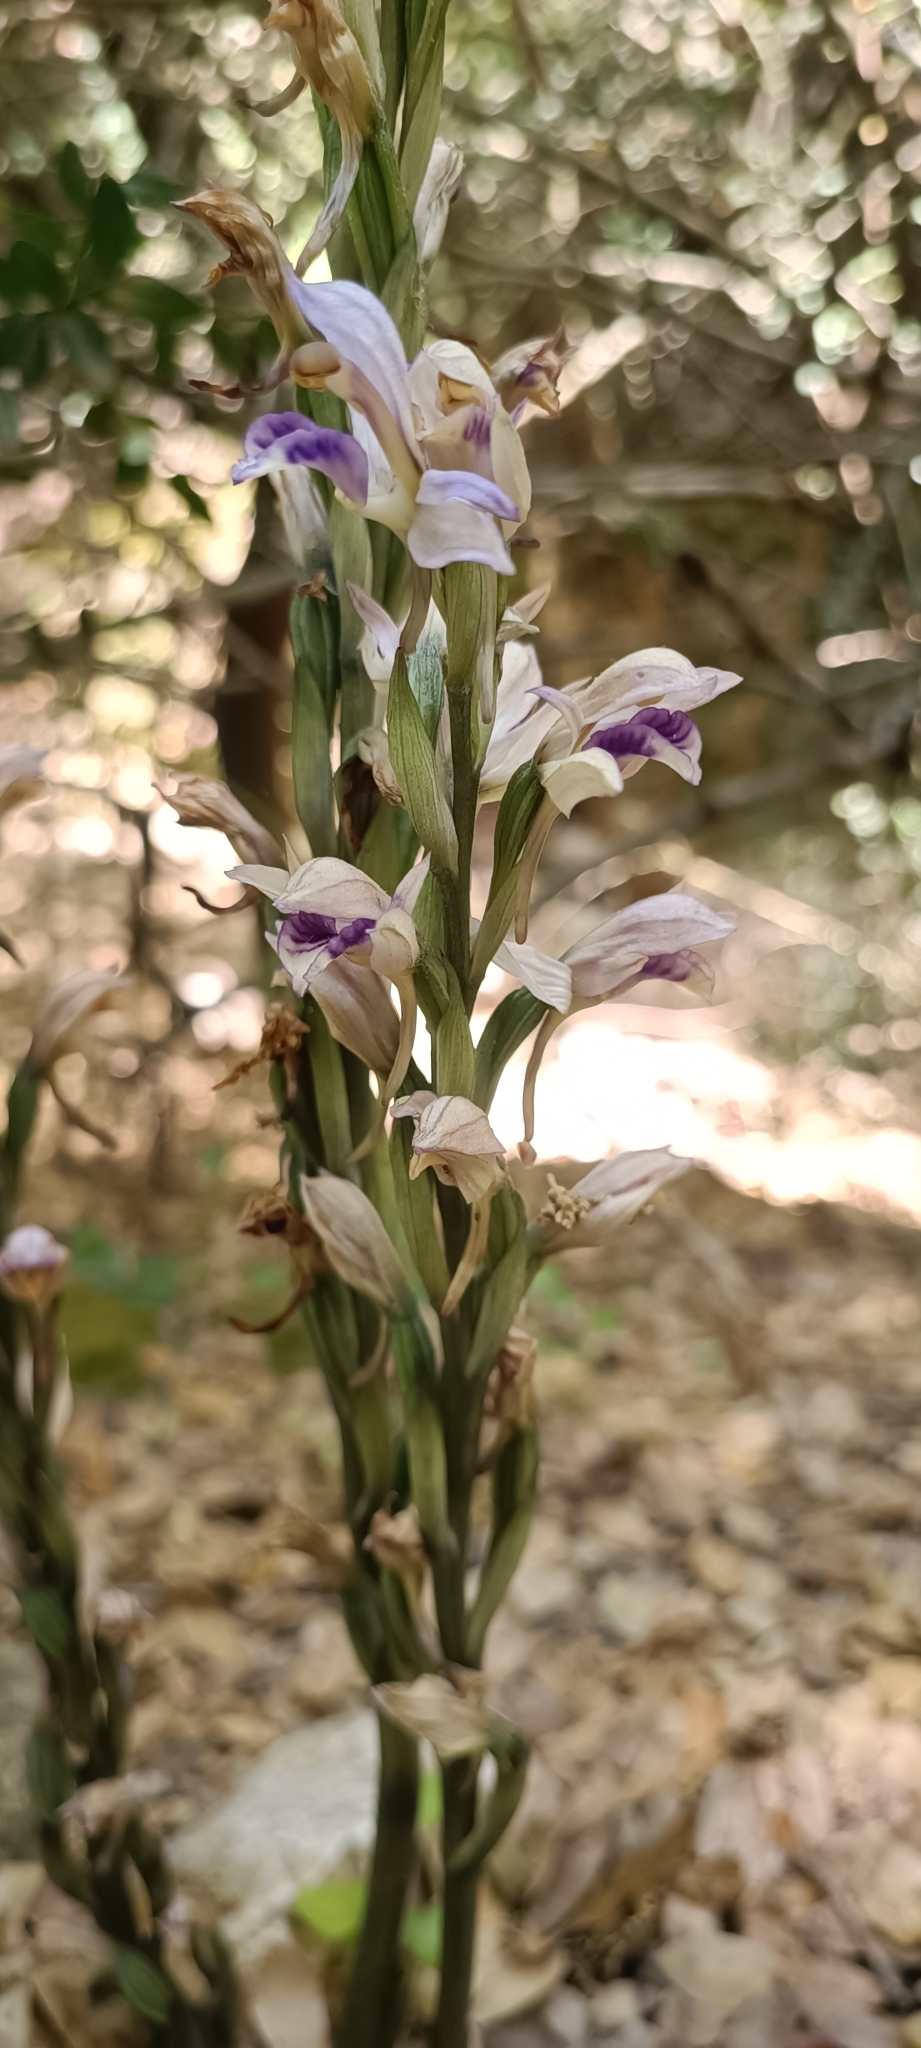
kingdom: Plantae
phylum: Tracheophyta
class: Liliopsida
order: Asparagales
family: Orchidaceae
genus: Limodorum
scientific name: Limodorum abortivum
